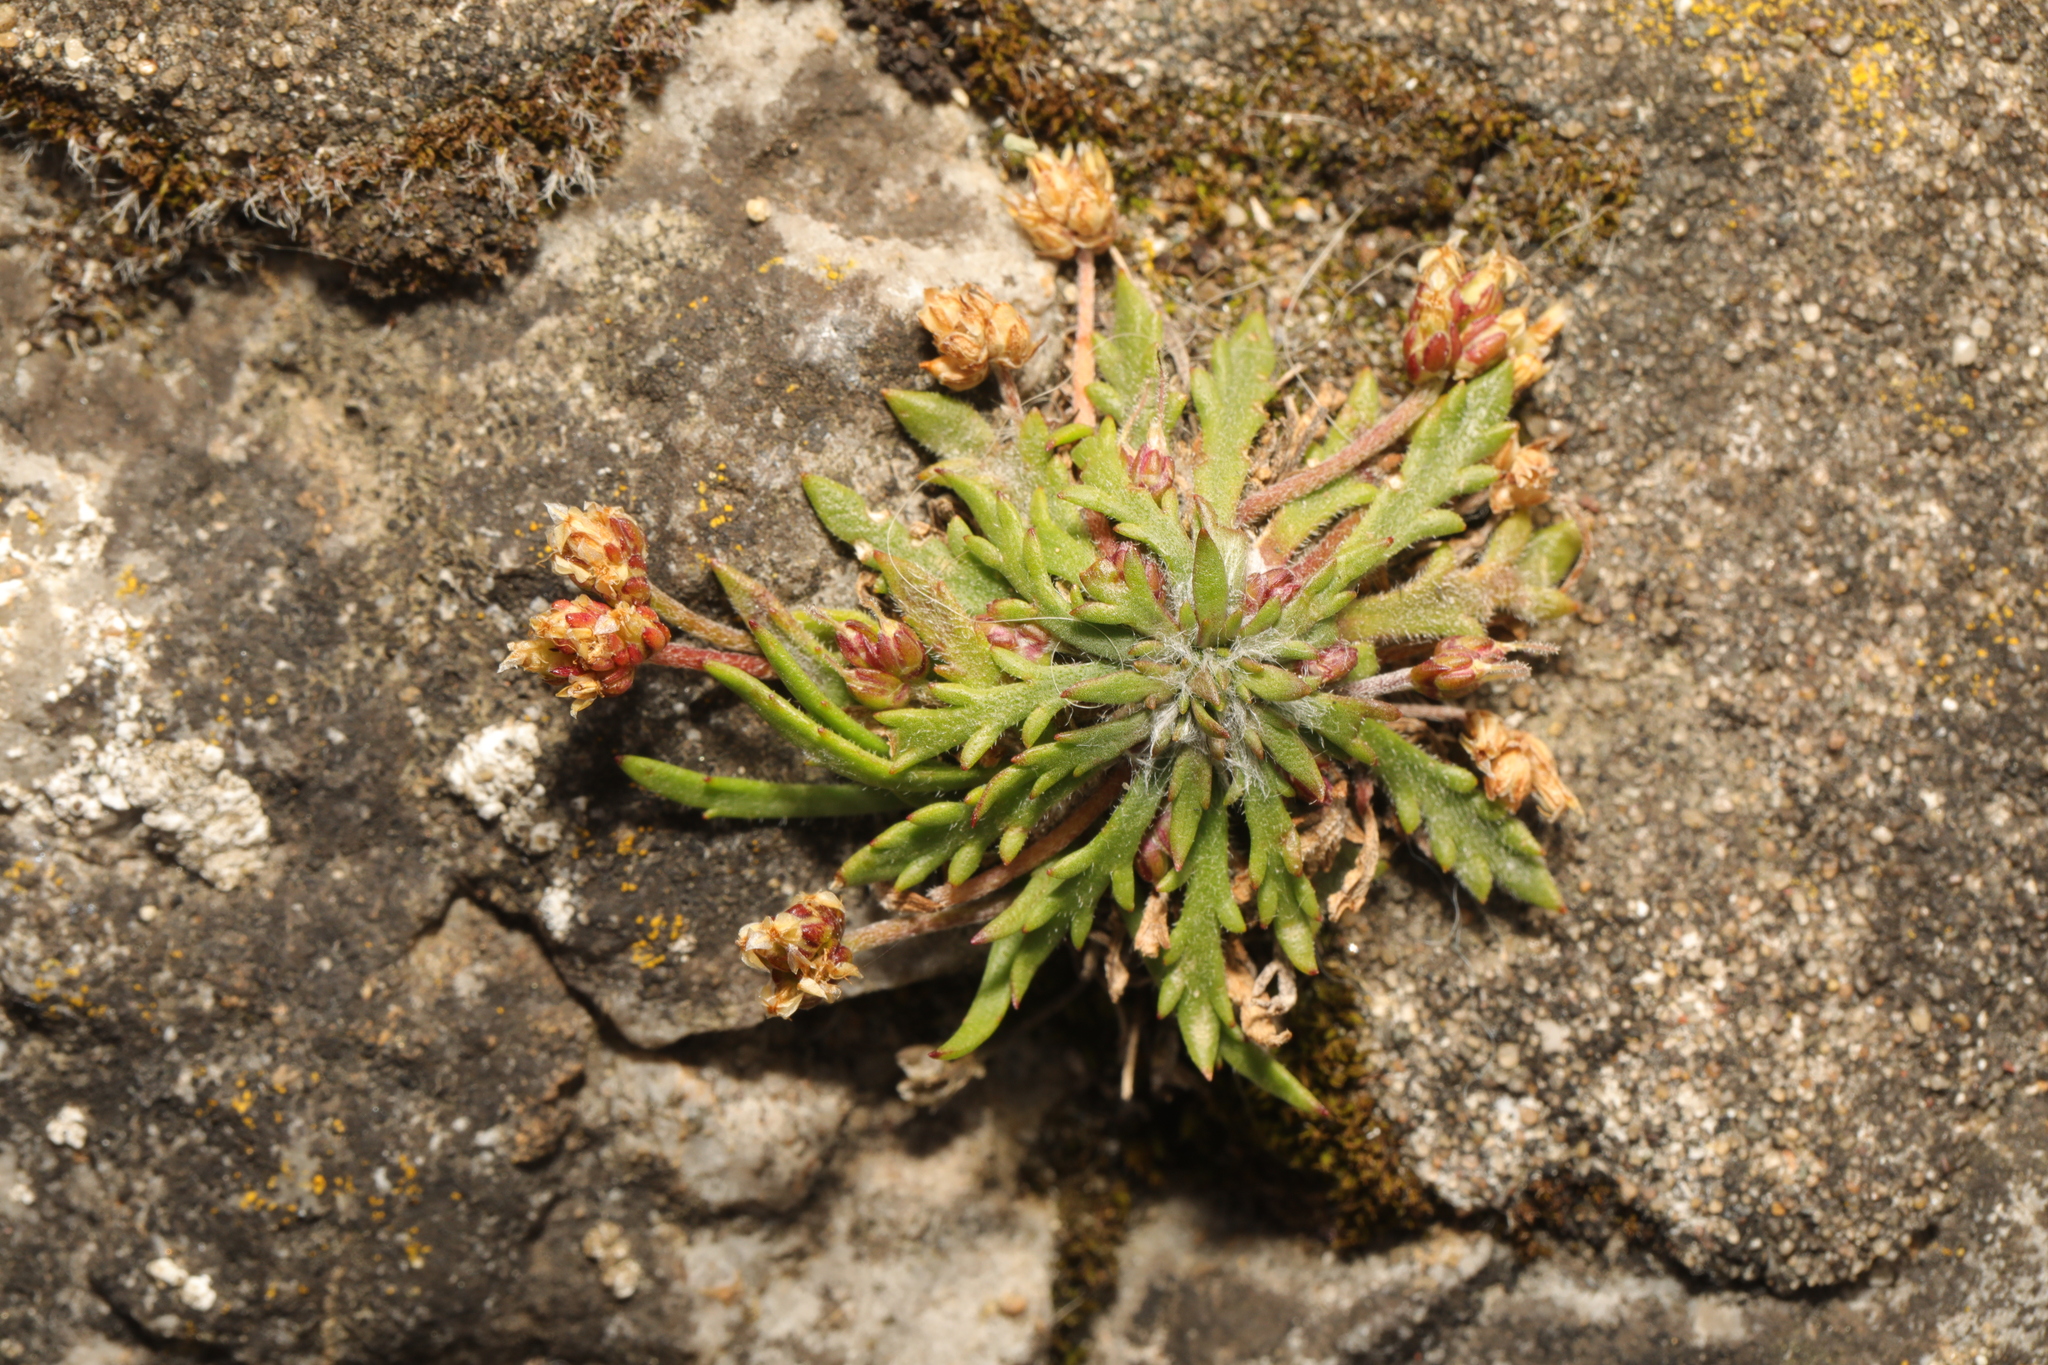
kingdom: Plantae
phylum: Tracheophyta
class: Magnoliopsida
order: Lamiales
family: Plantaginaceae
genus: Plantago
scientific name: Plantago coronopus
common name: Buck's-horn plantain
